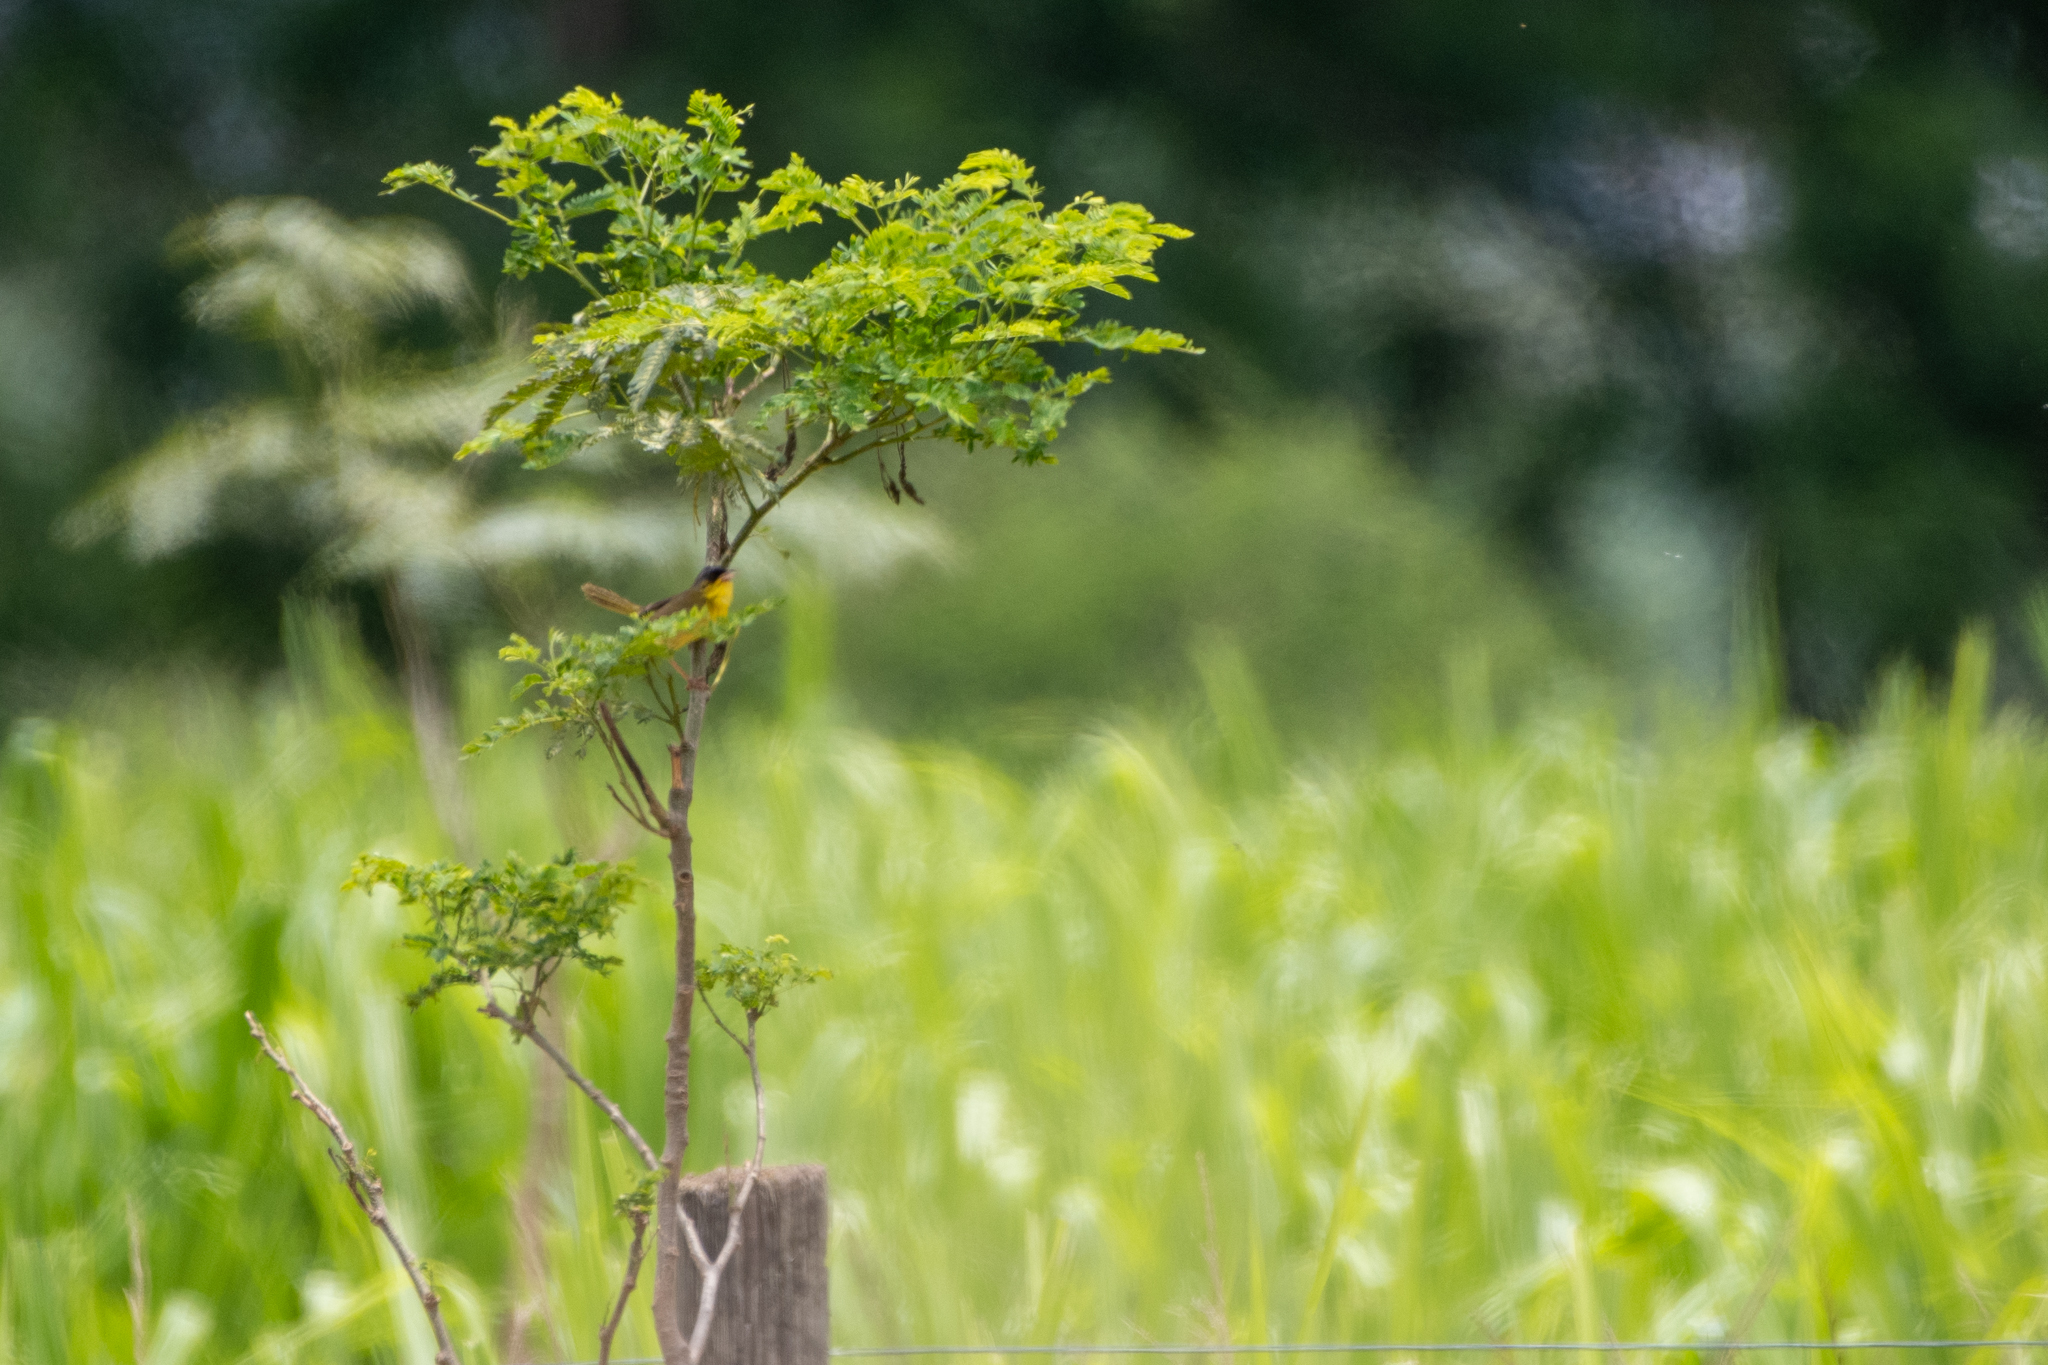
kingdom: Animalia
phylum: Chordata
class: Aves
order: Passeriformes
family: Parulidae
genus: Geothlypis
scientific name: Geothlypis poliocephala
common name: Gray-crowned yellowthroat
